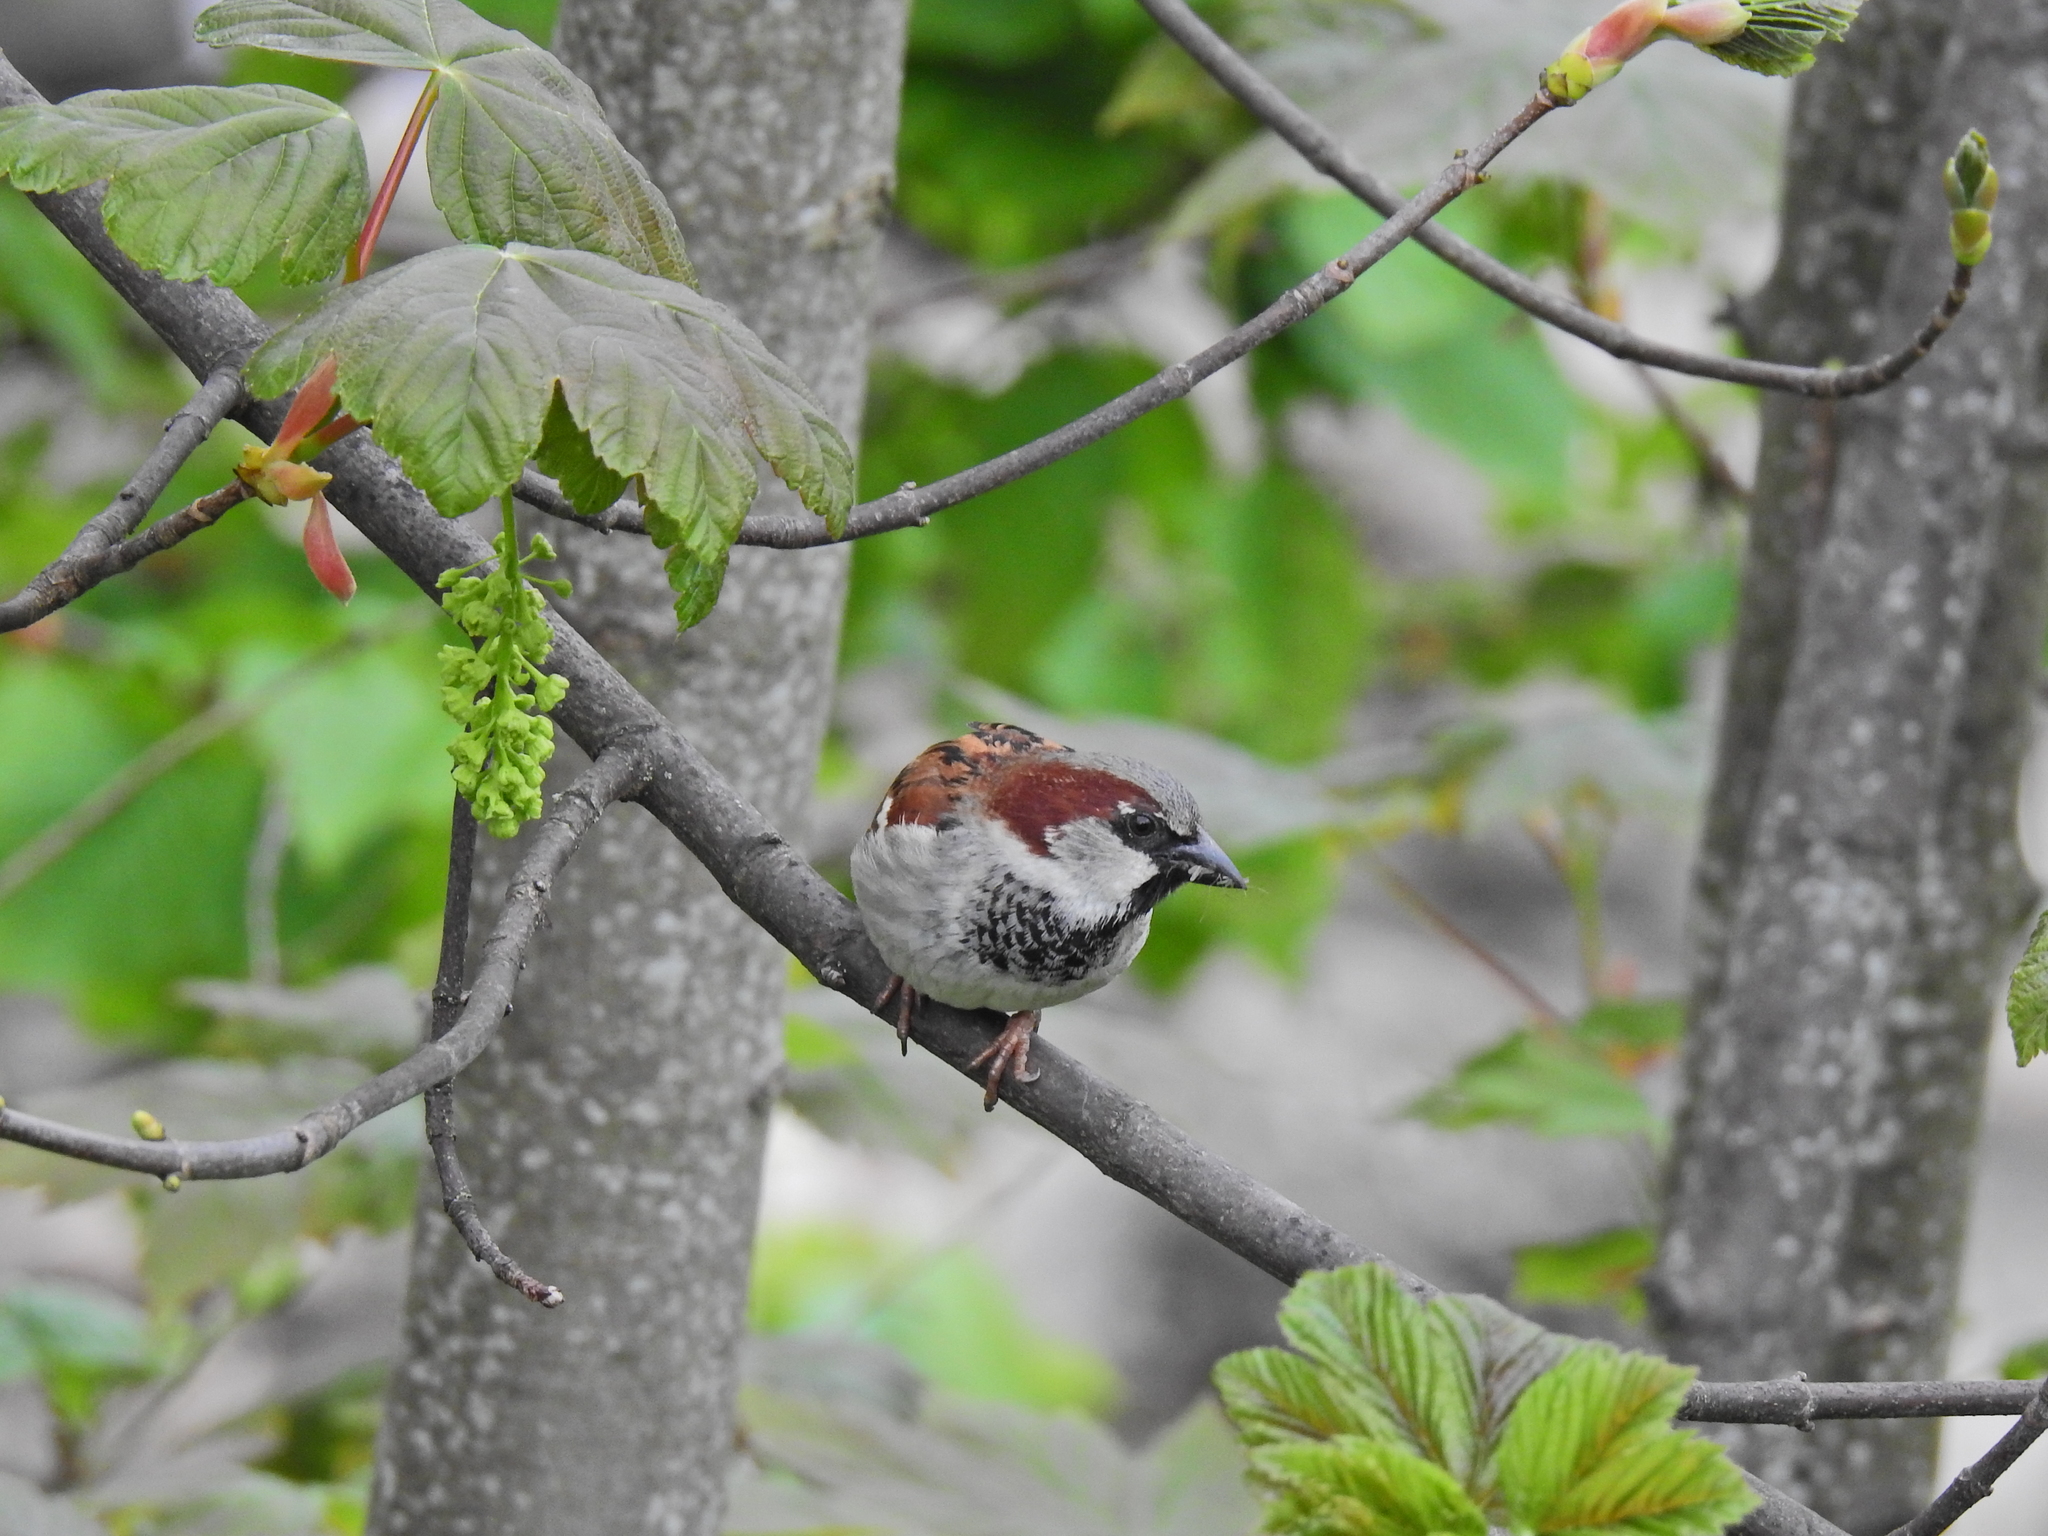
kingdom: Animalia
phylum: Chordata
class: Aves
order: Passeriformes
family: Passeridae
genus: Passer
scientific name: Passer domesticus
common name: House sparrow
